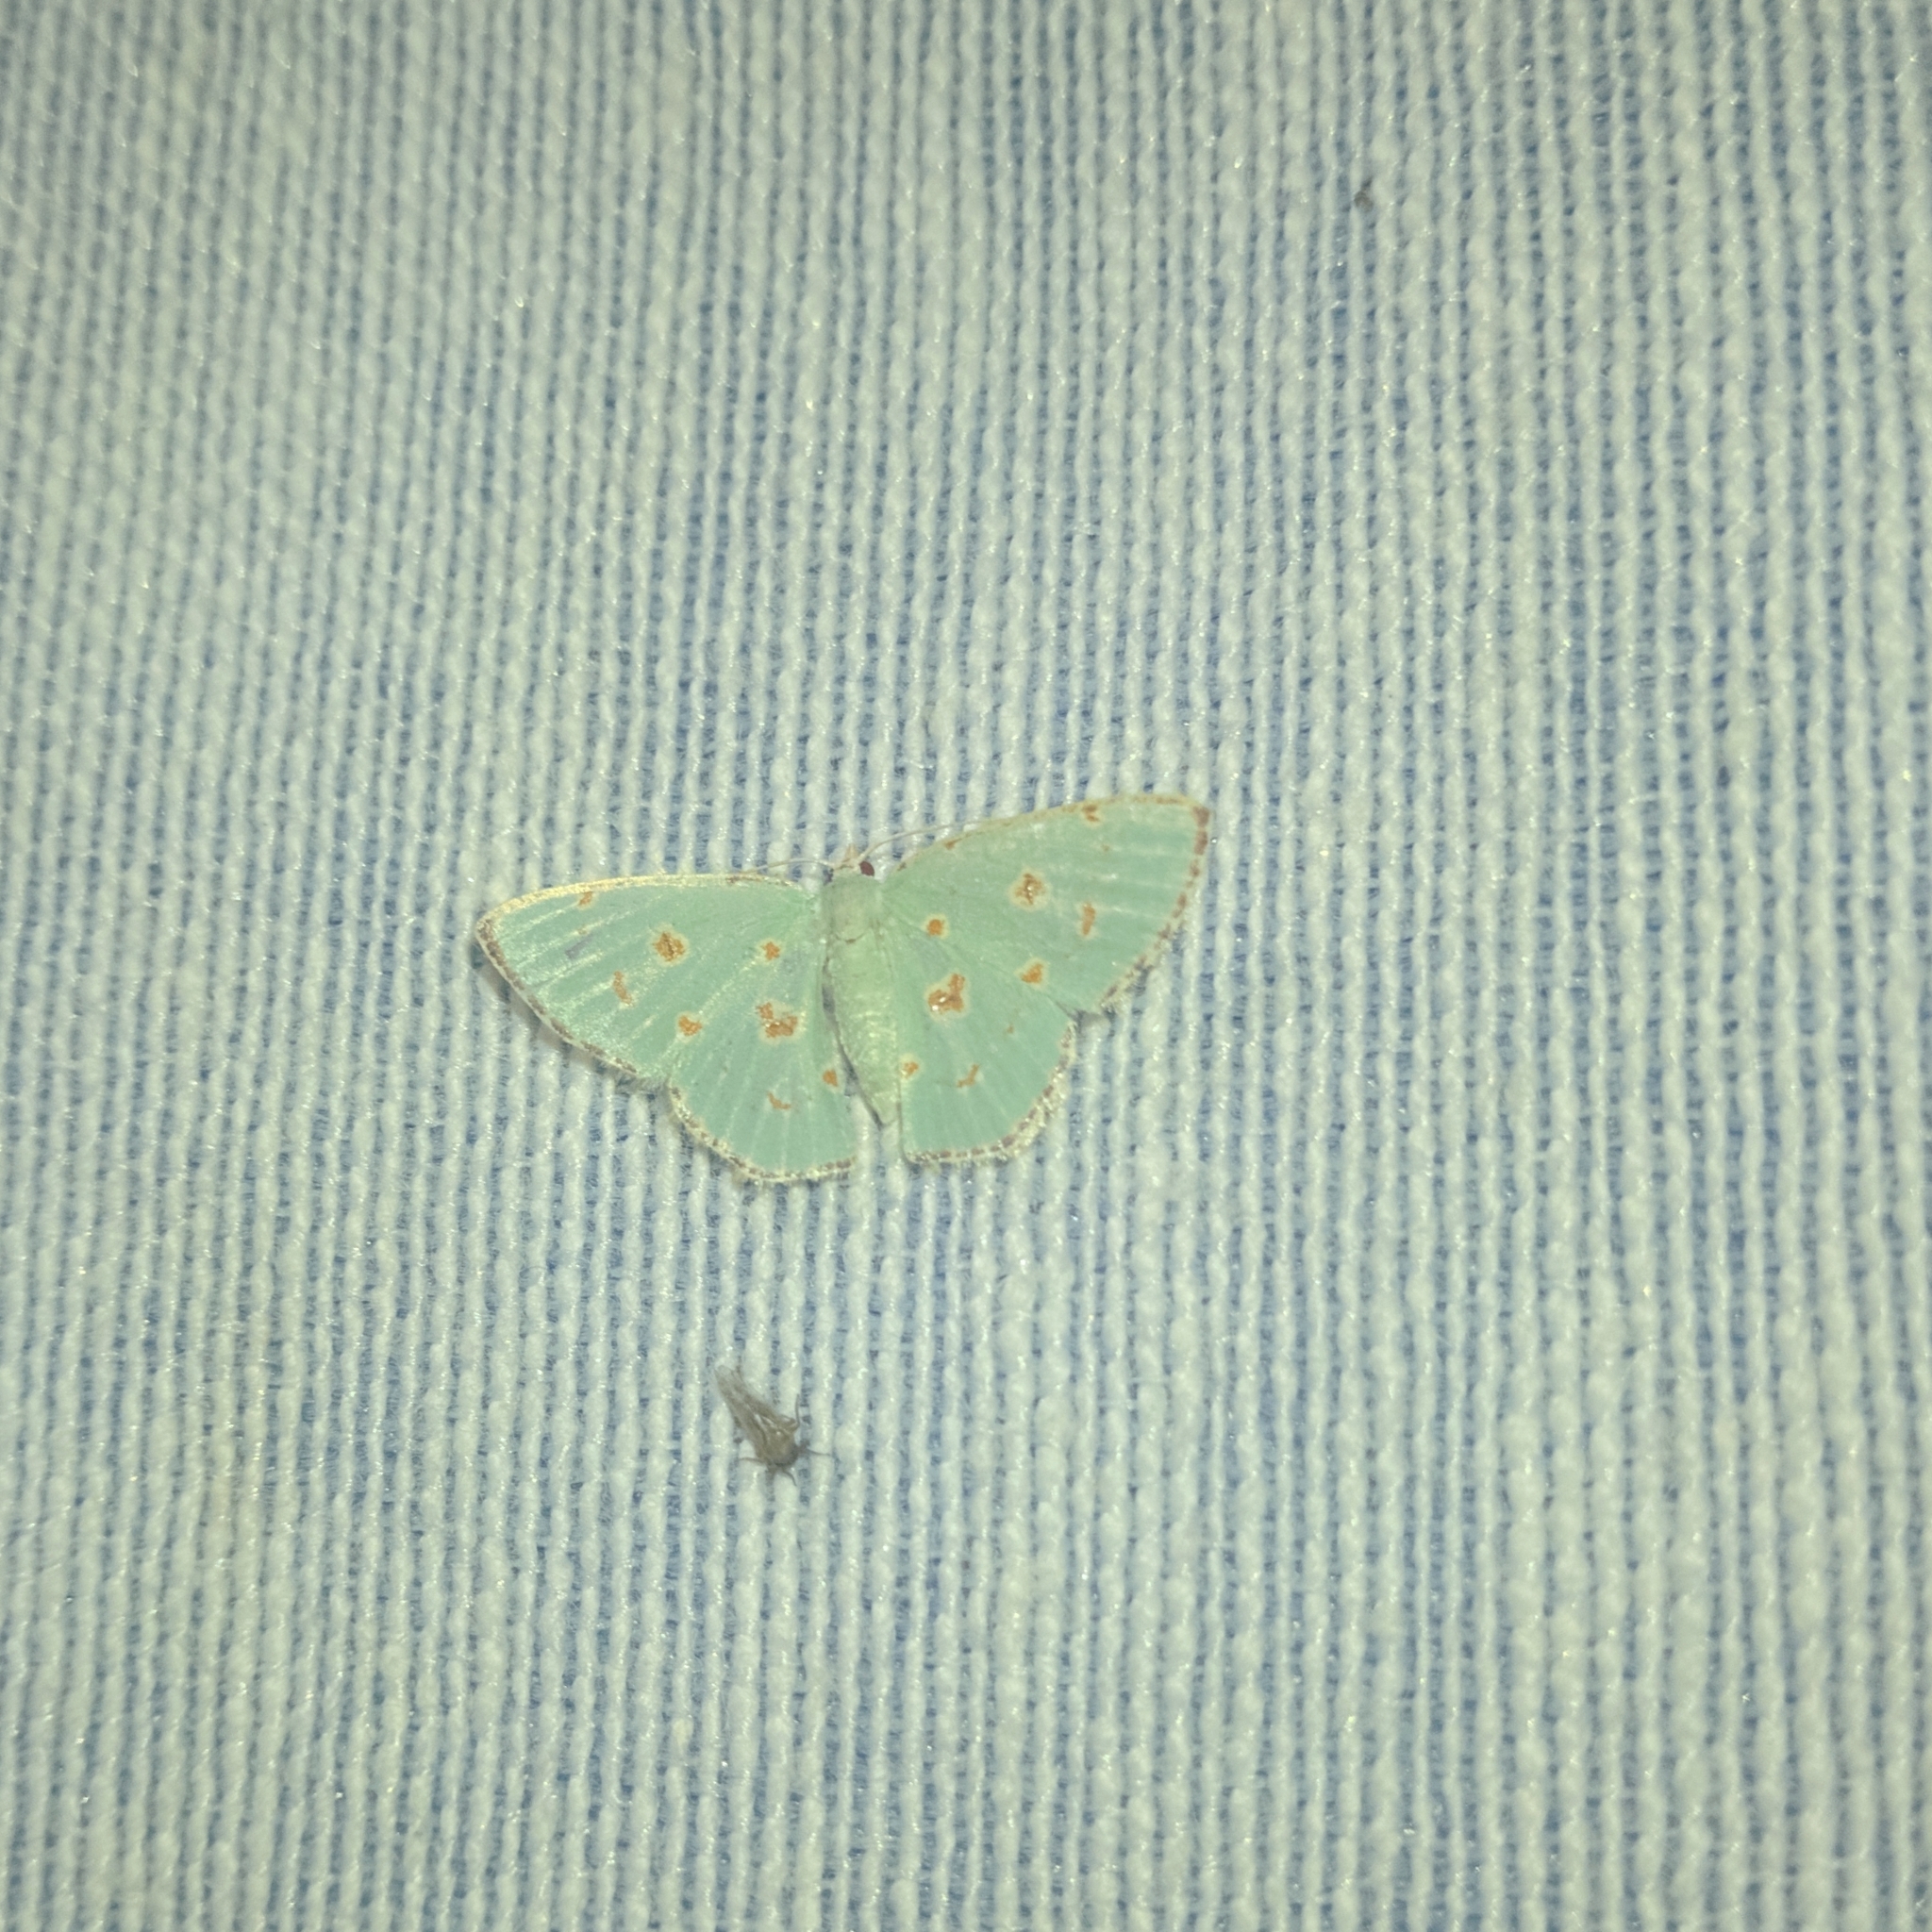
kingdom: Animalia
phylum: Arthropoda
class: Insecta
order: Lepidoptera
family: Geometridae
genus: Comostola
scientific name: Comostola laesaria
